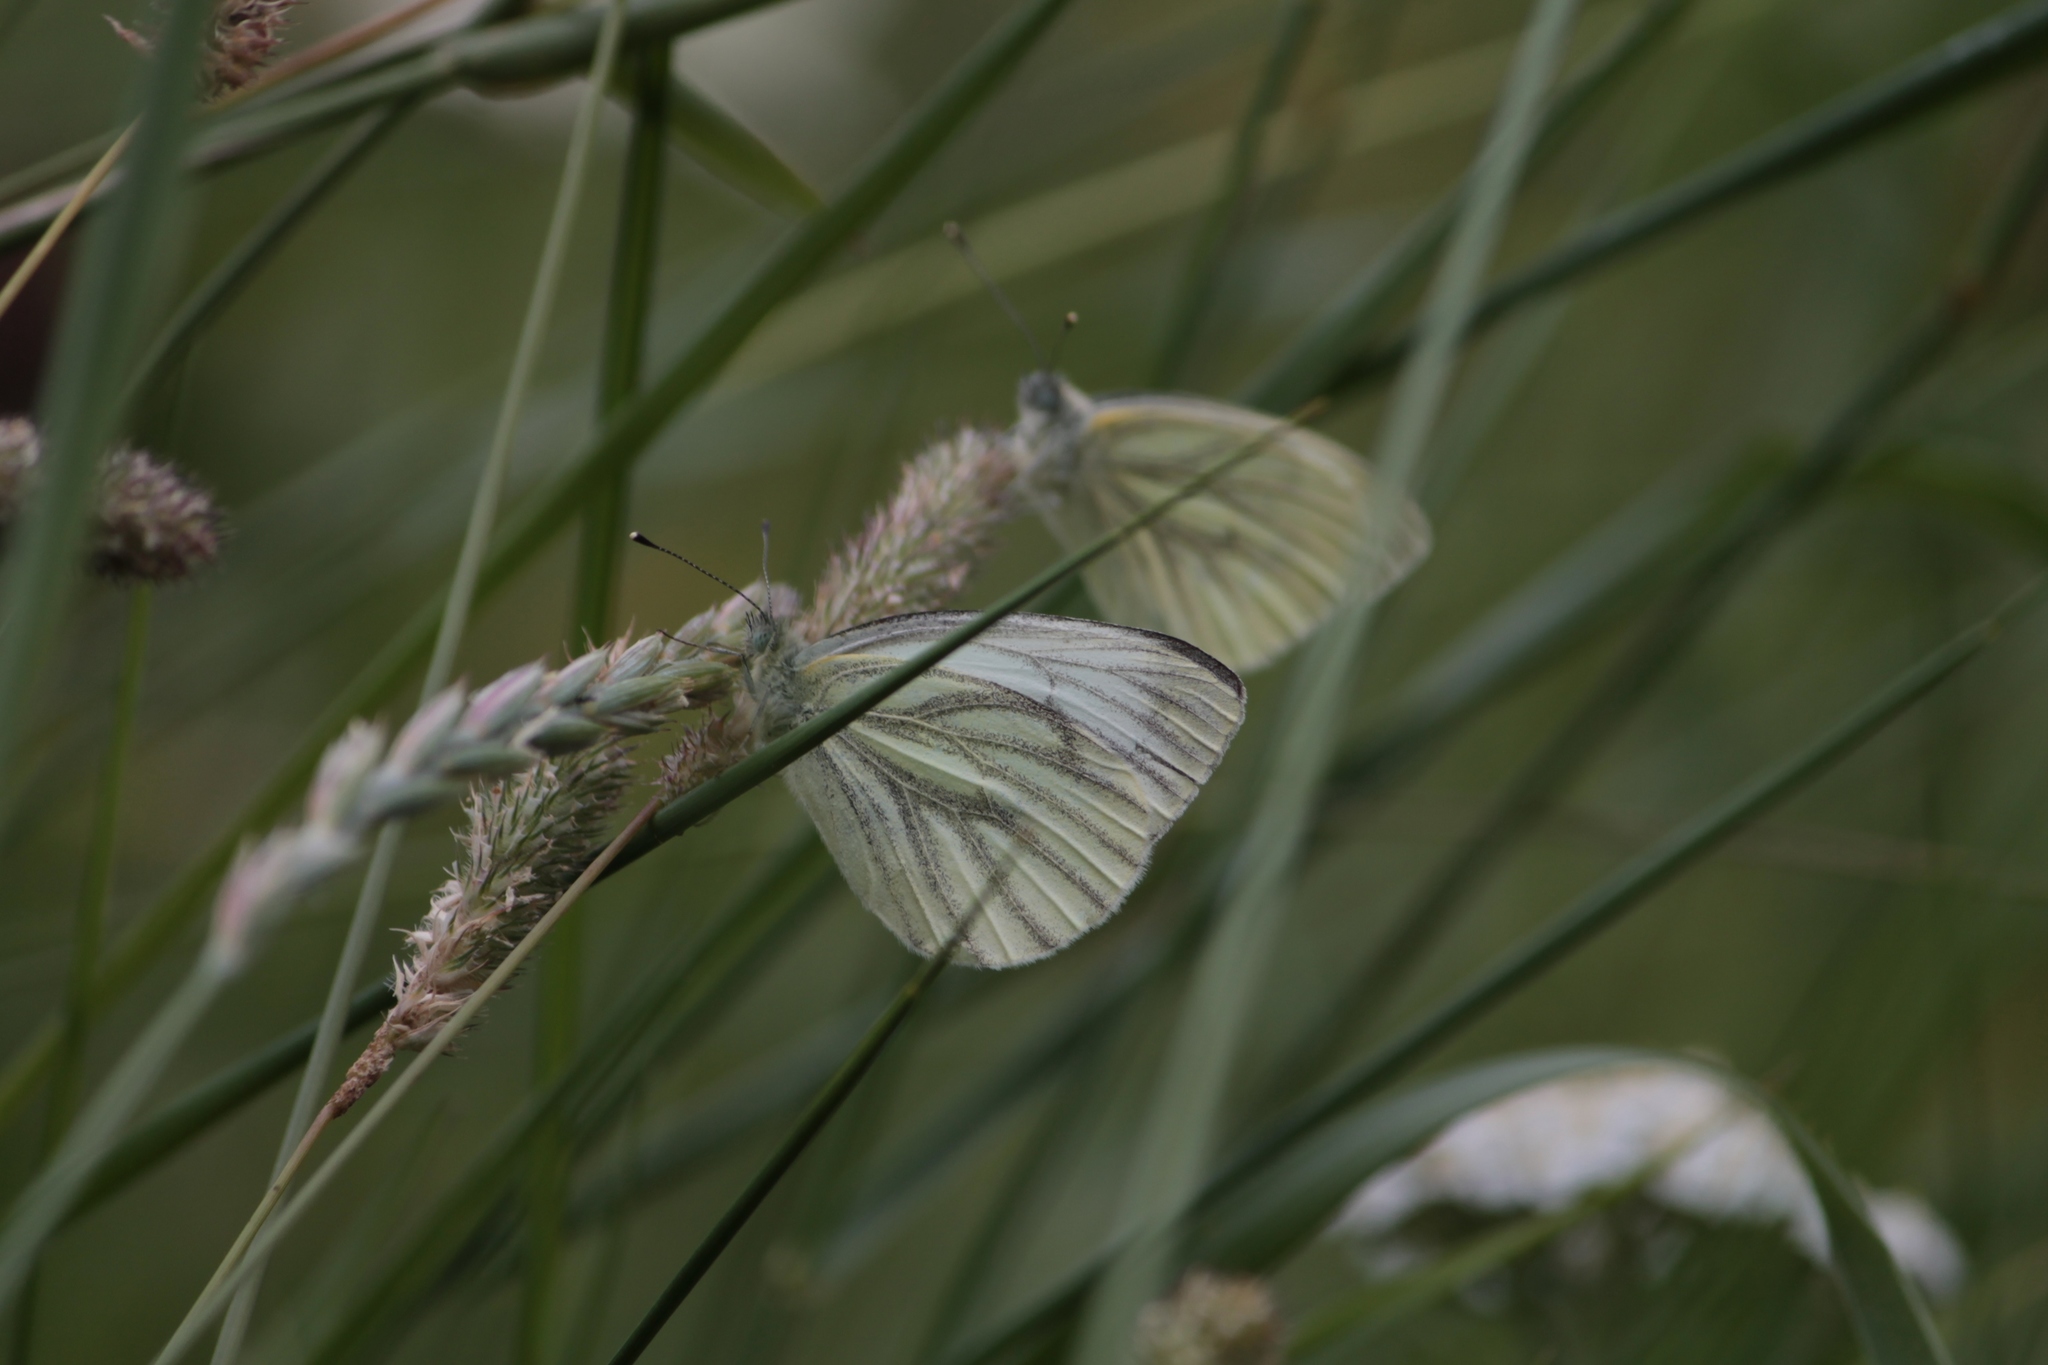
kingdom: Animalia
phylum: Arthropoda
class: Insecta
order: Lepidoptera
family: Pieridae
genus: Pieris
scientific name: Pieris napi
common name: Green-veined white
